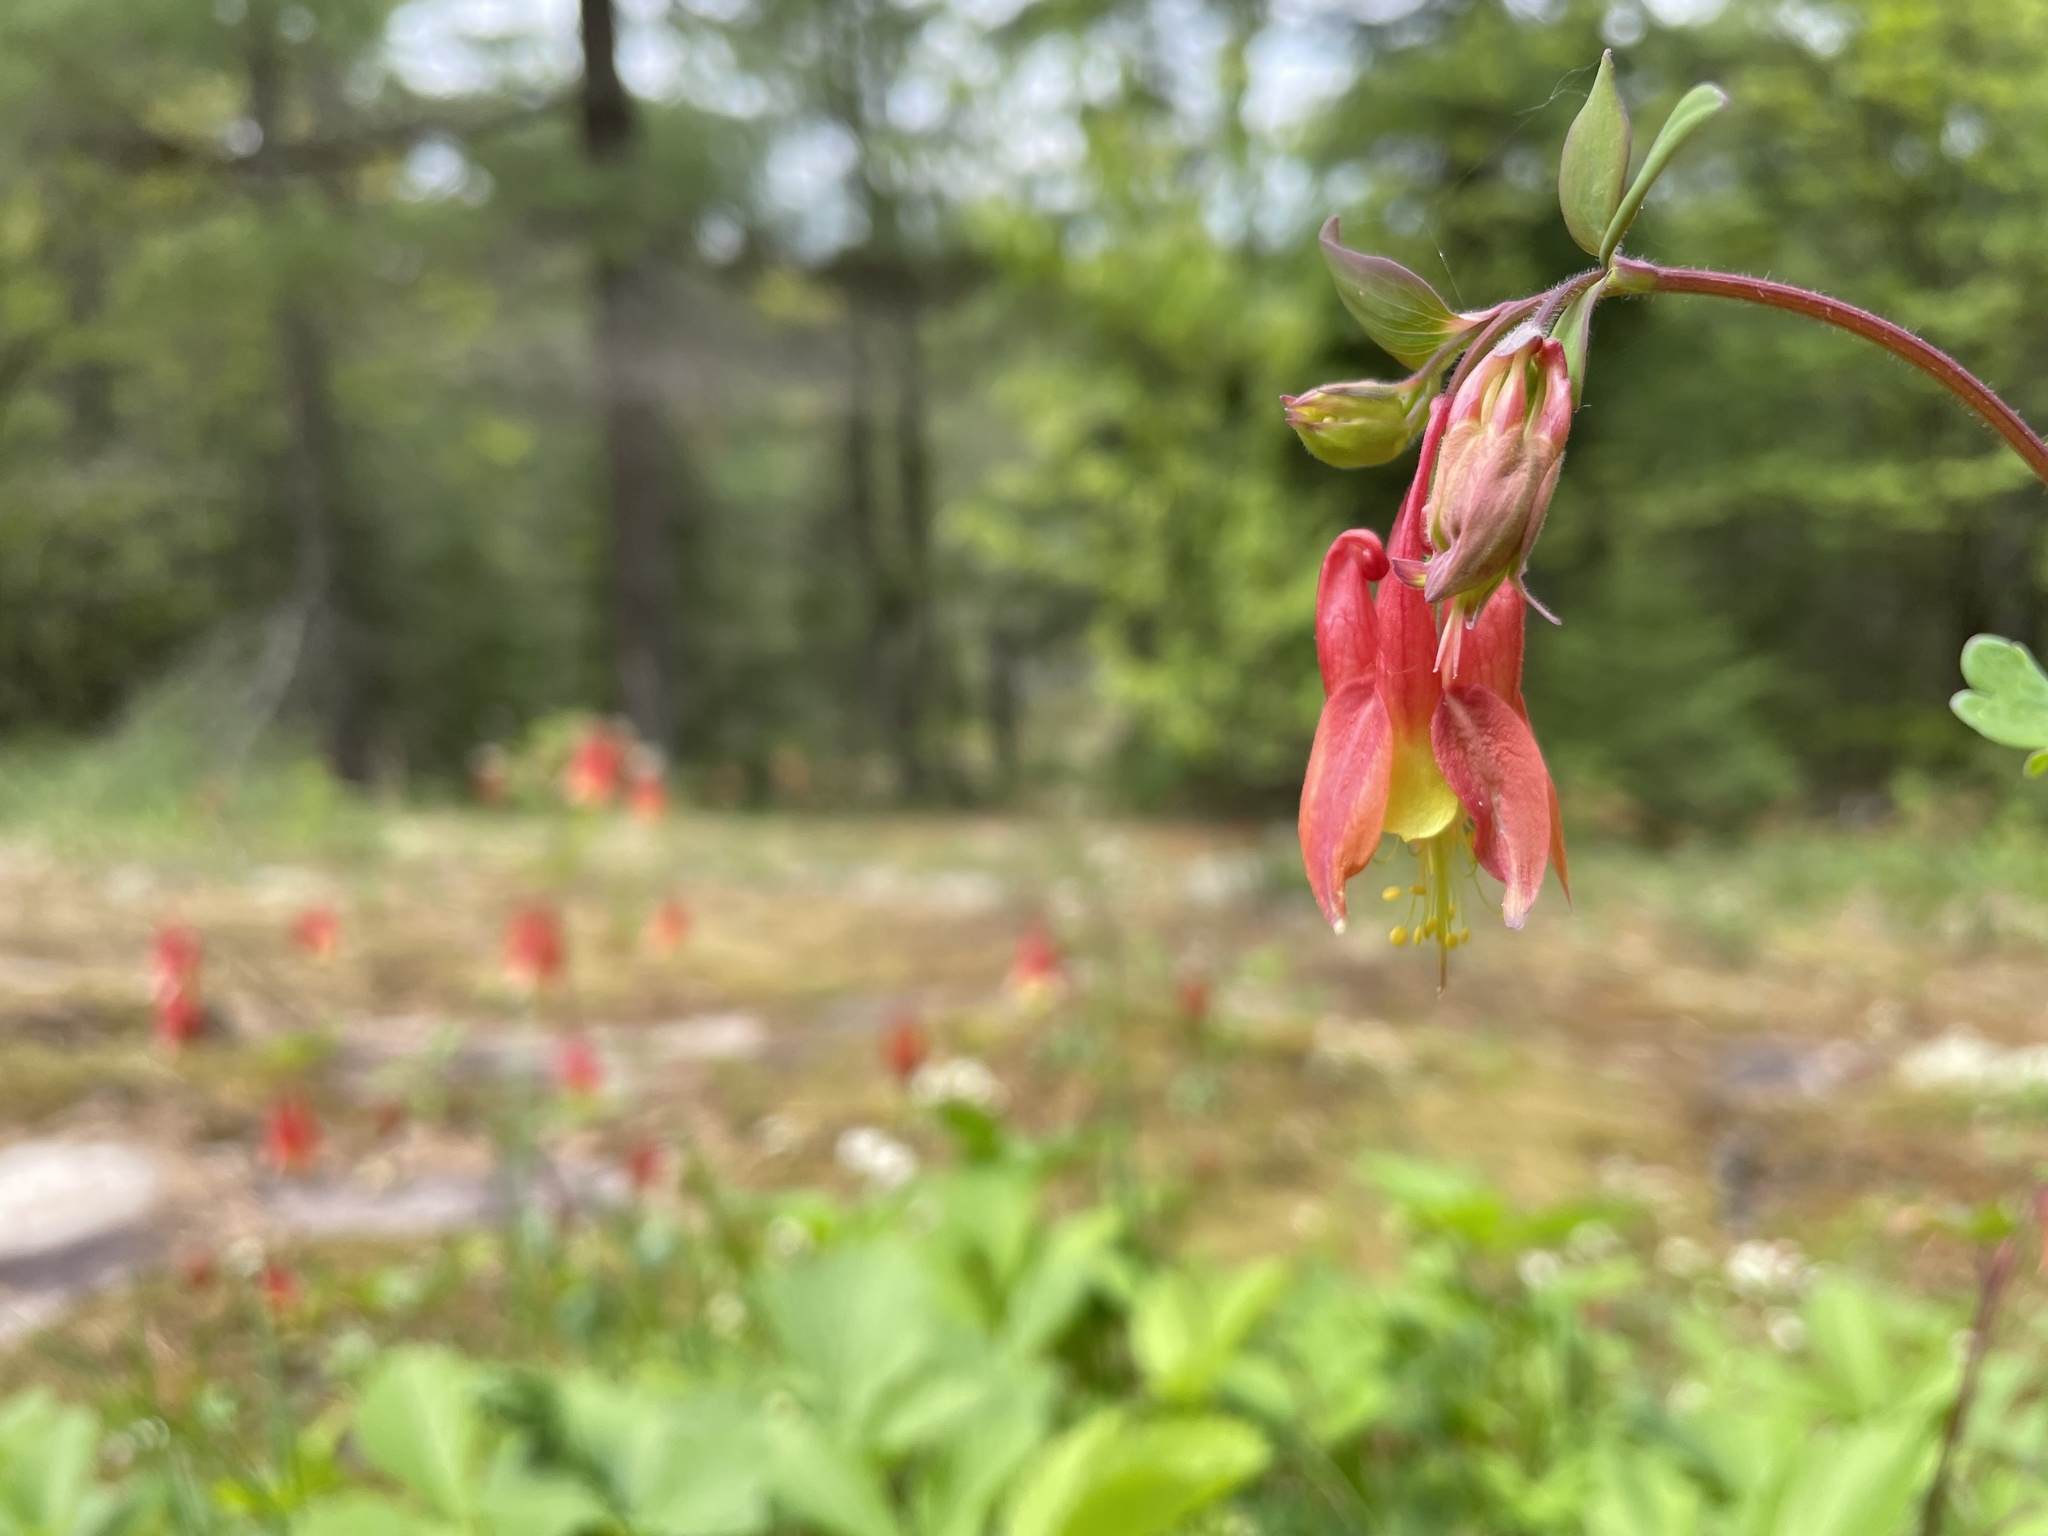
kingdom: Plantae
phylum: Tracheophyta
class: Magnoliopsida
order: Ranunculales
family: Ranunculaceae
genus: Aquilegia
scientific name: Aquilegia canadensis
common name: American columbine
